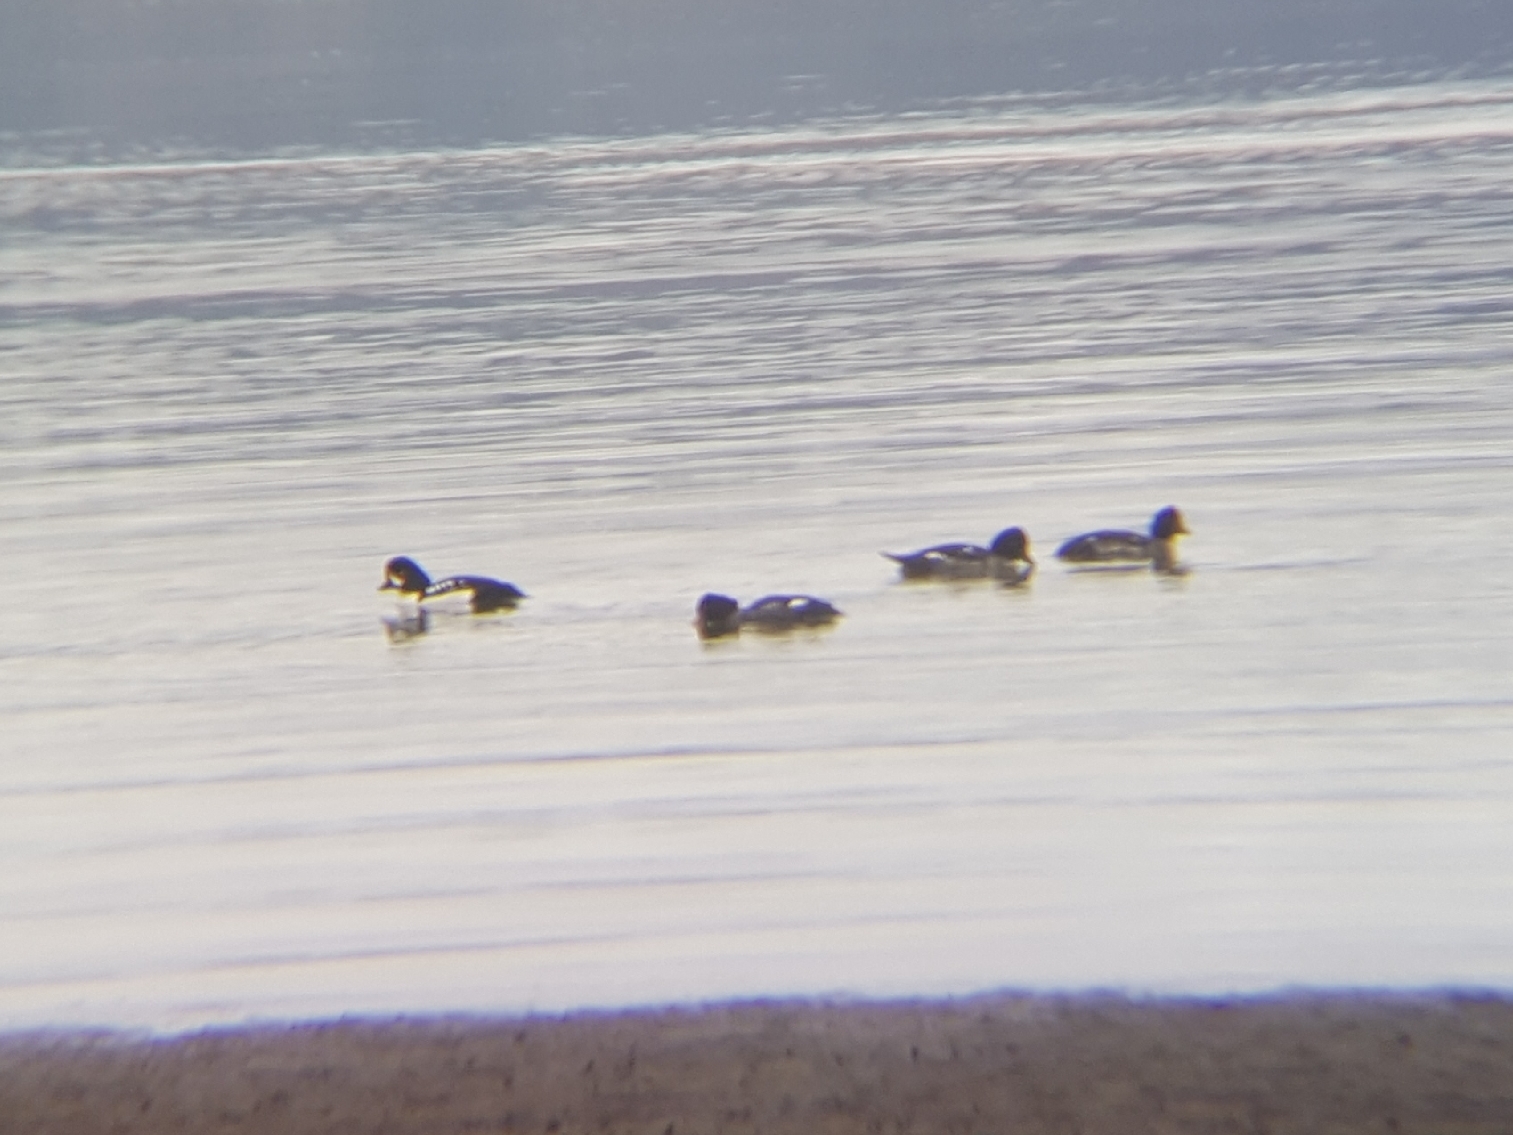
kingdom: Animalia
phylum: Chordata
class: Aves
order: Anseriformes
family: Anatidae
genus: Bucephala
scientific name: Bucephala islandica
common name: Barrow's goldeneye
